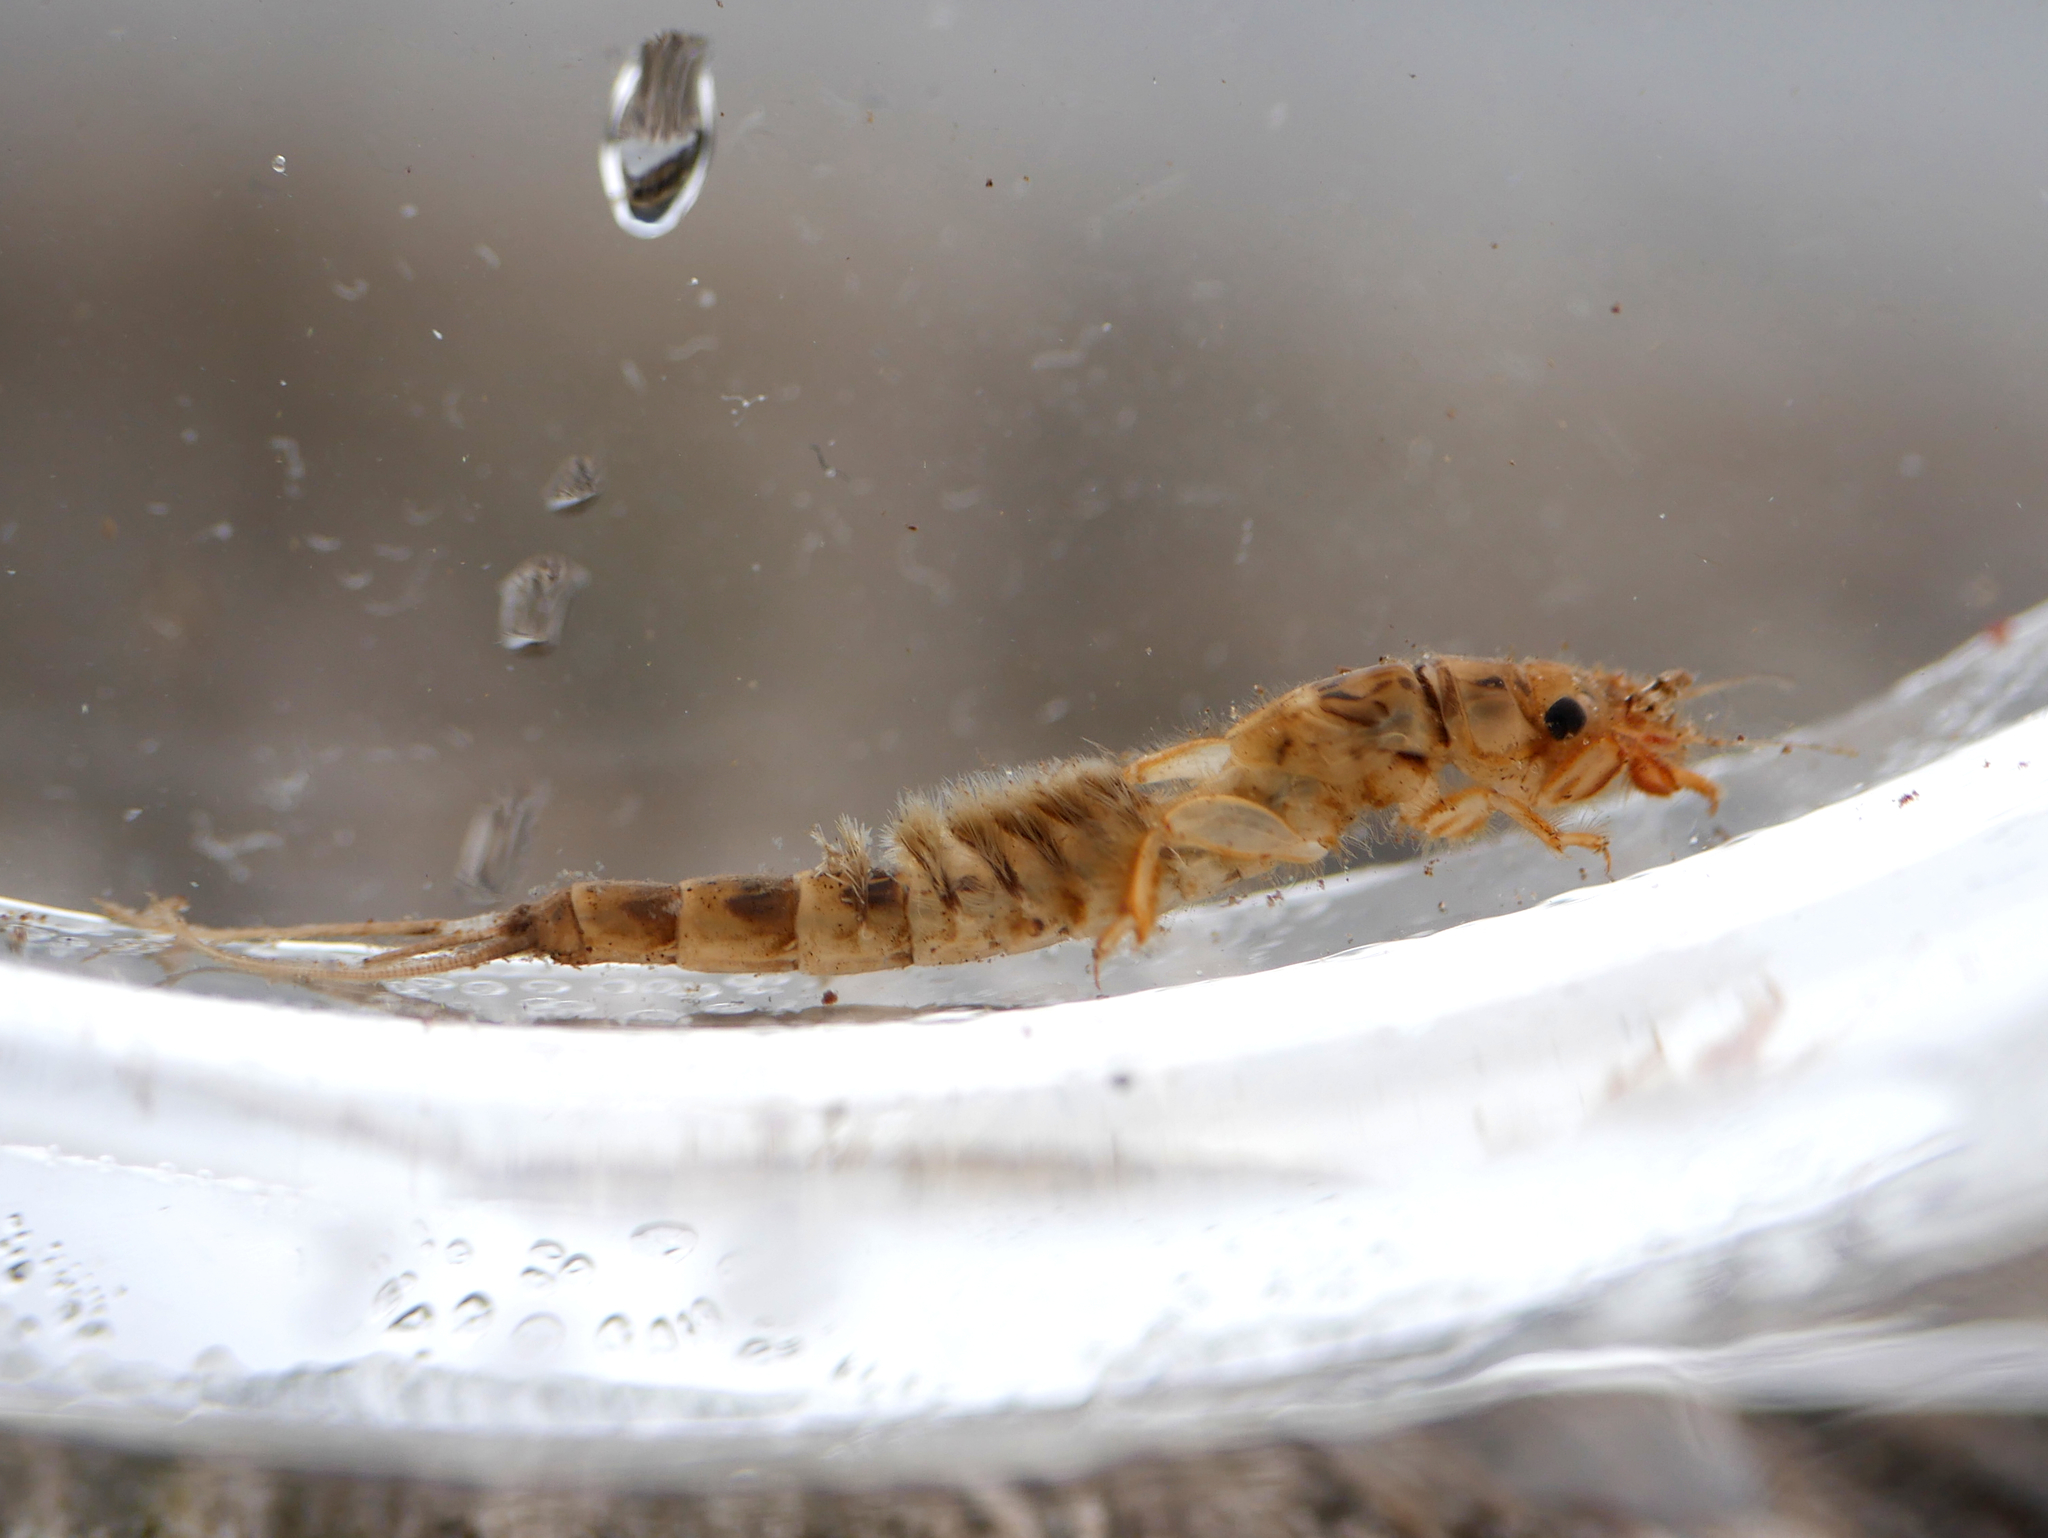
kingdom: Animalia
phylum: Arthropoda
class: Insecta
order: Ephemeroptera
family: Ephemeridae
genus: Ephemera
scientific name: Ephemera danica
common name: Green dun
